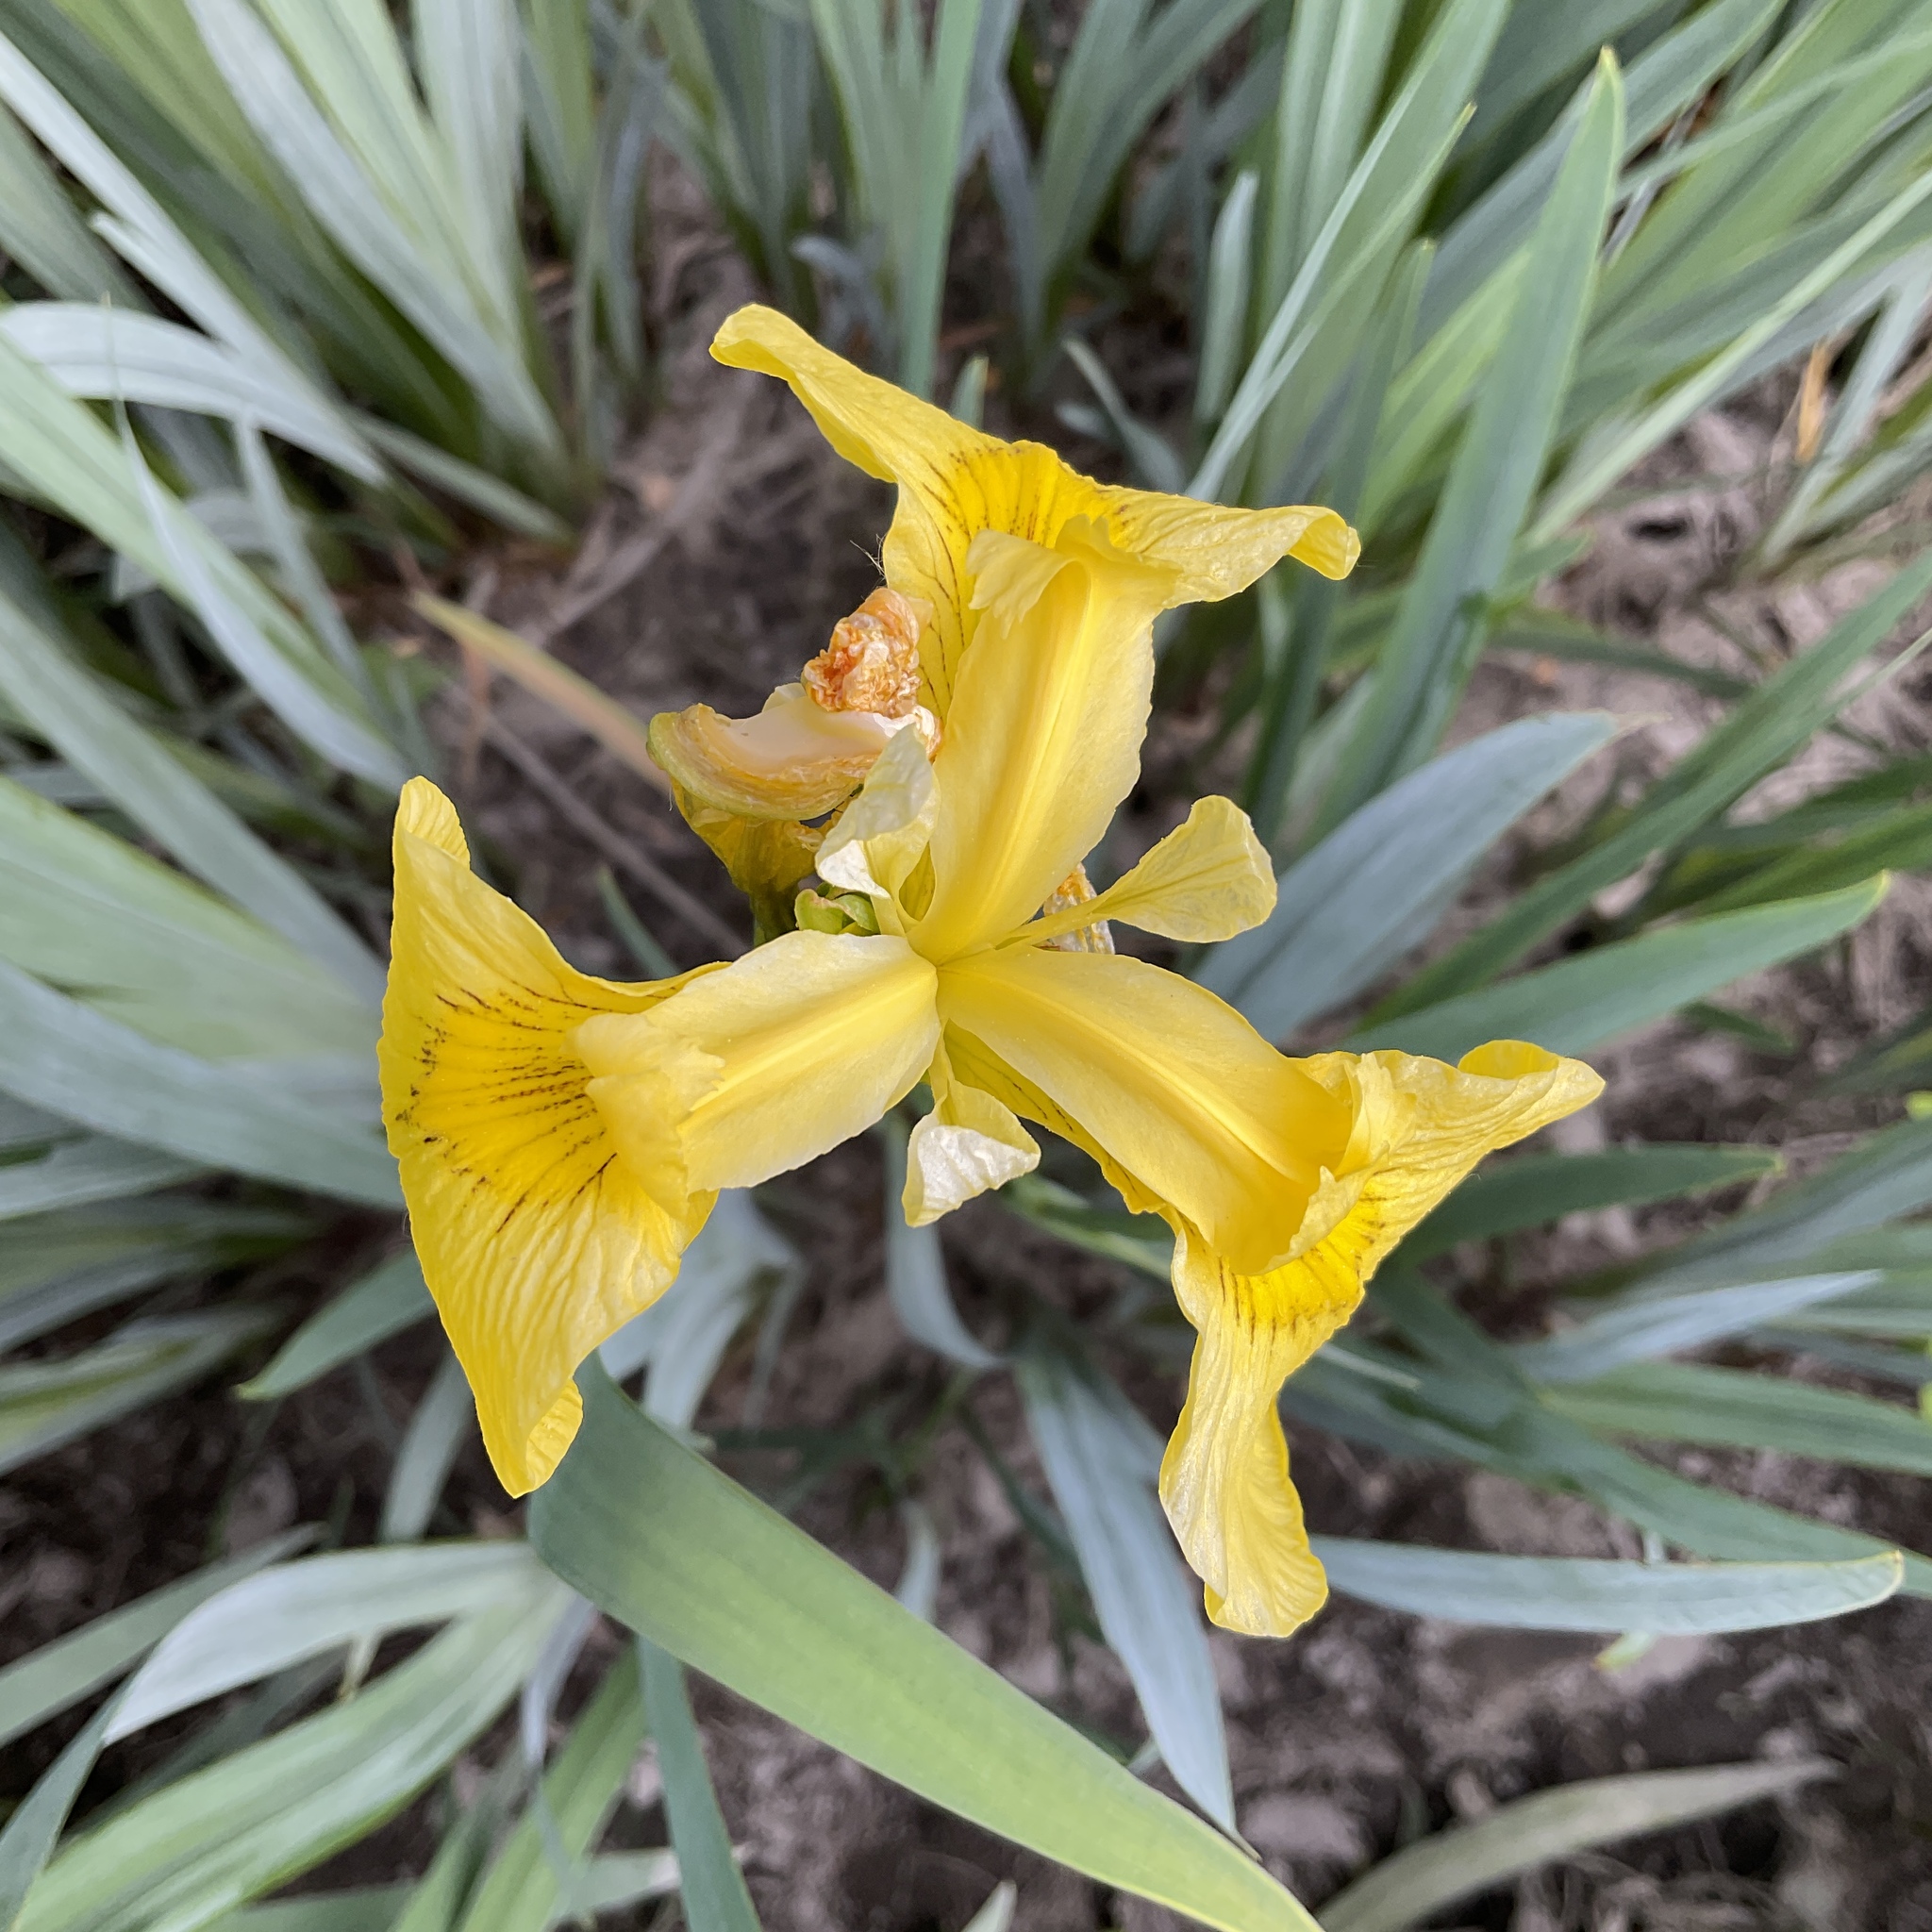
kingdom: Plantae
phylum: Tracheophyta
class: Liliopsida
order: Asparagales
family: Iridaceae
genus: Iris
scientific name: Iris pseudacorus
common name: Yellow flag
